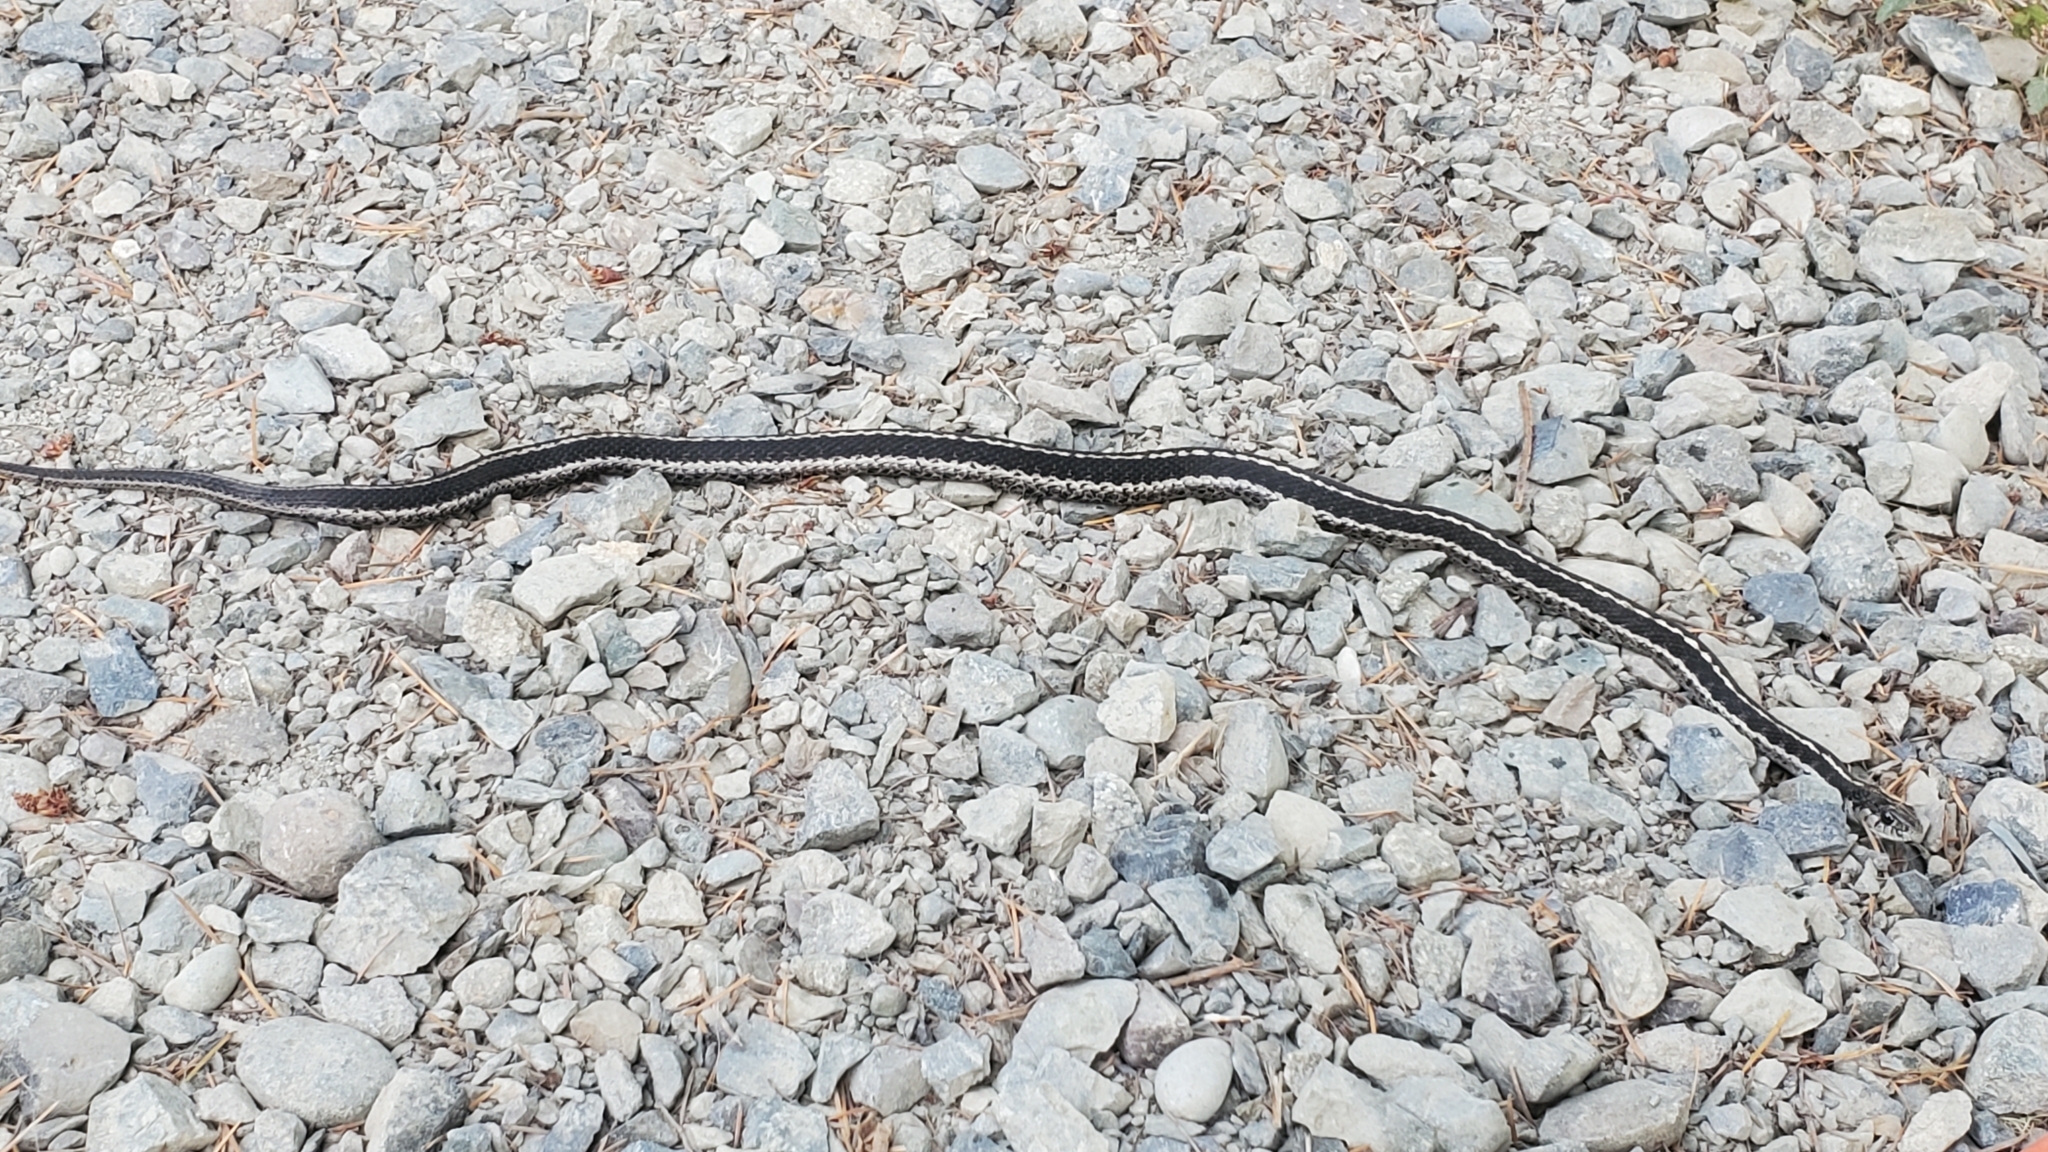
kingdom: Animalia
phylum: Chordata
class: Squamata
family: Colubridae
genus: Thamnophis
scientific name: Thamnophis elegans
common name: Western terrestrial garter snake
